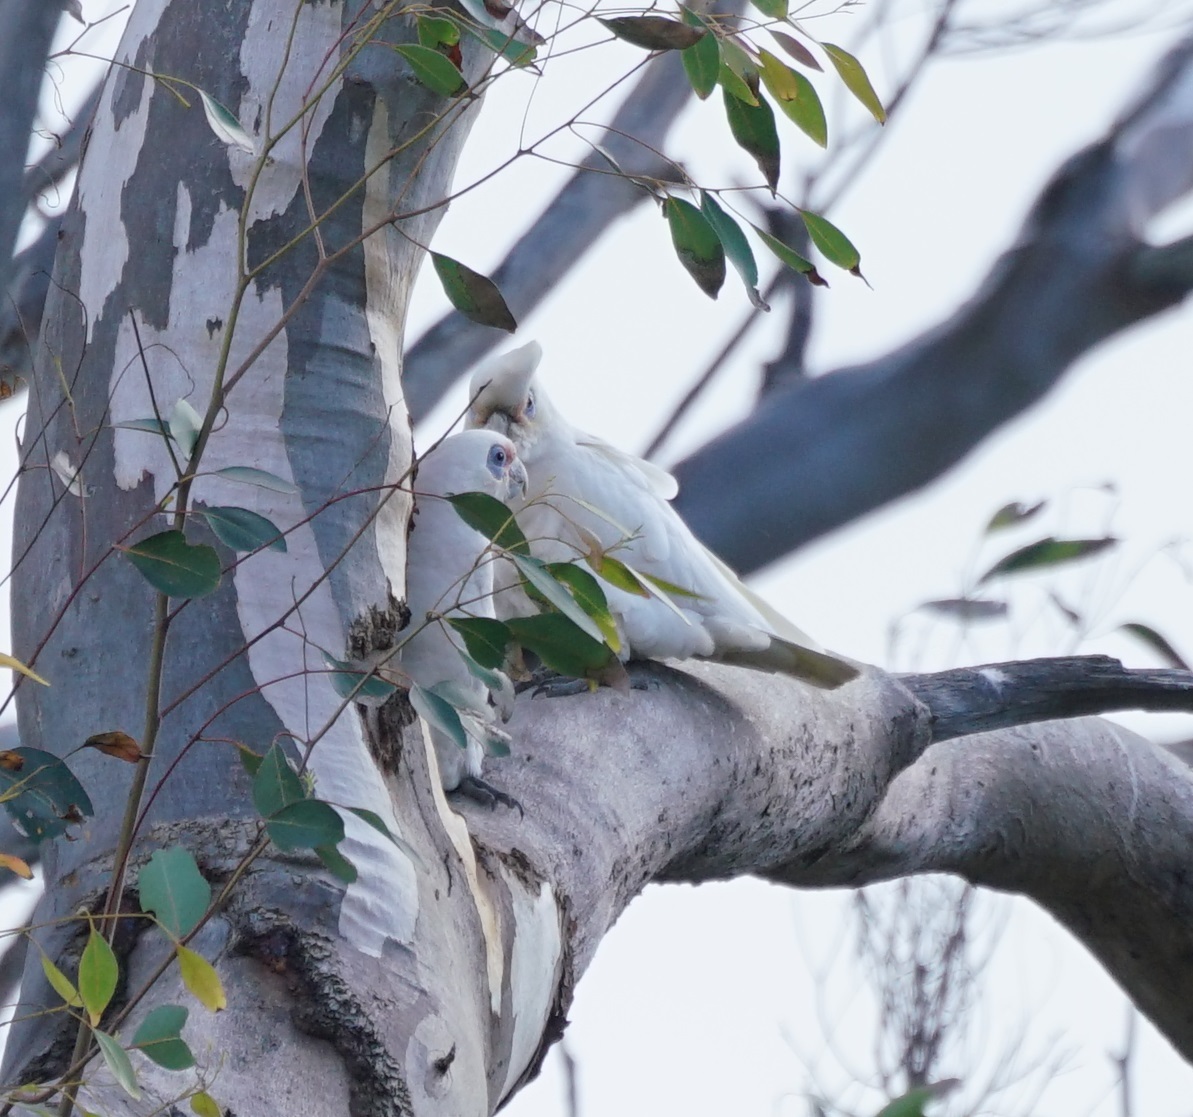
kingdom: Animalia
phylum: Chordata
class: Aves
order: Psittaciformes
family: Psittacidae
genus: Cacatua
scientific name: Cacatua sanguinea
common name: Little corella
